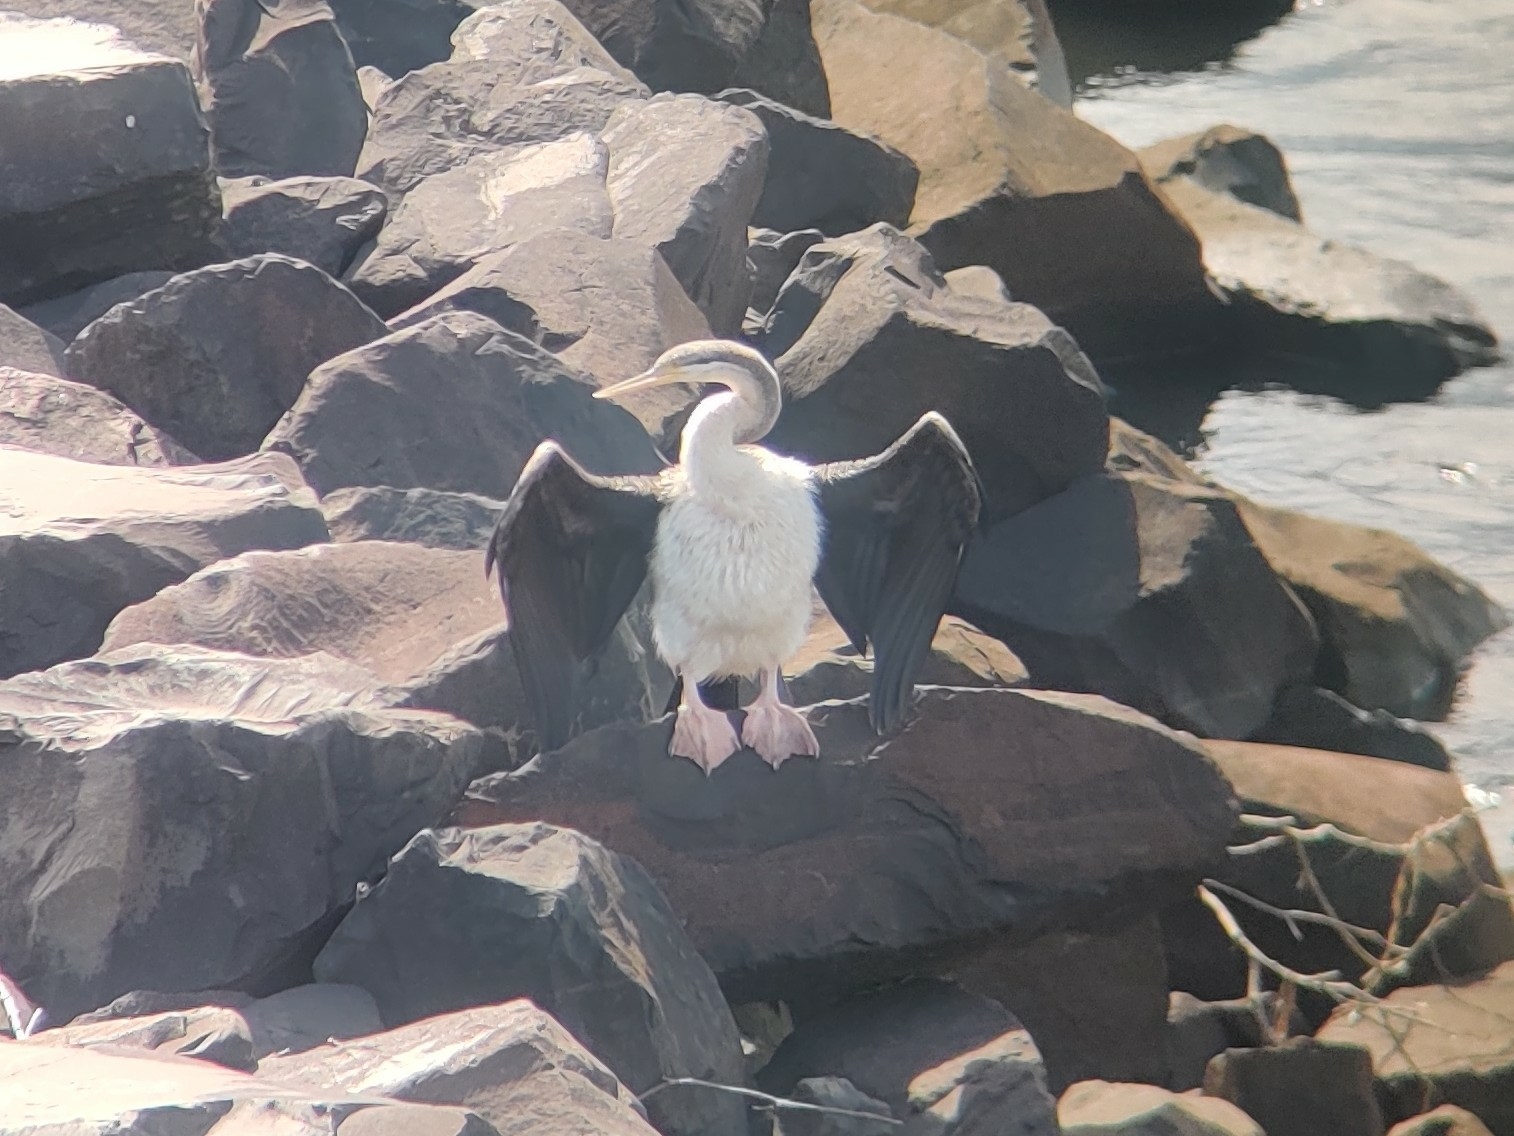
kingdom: Animalia
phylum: Chordata
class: Aves
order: Suliformes
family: Anhingidae
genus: Anhinga
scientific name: Anhinga novaehollandiae
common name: Australasian darter
